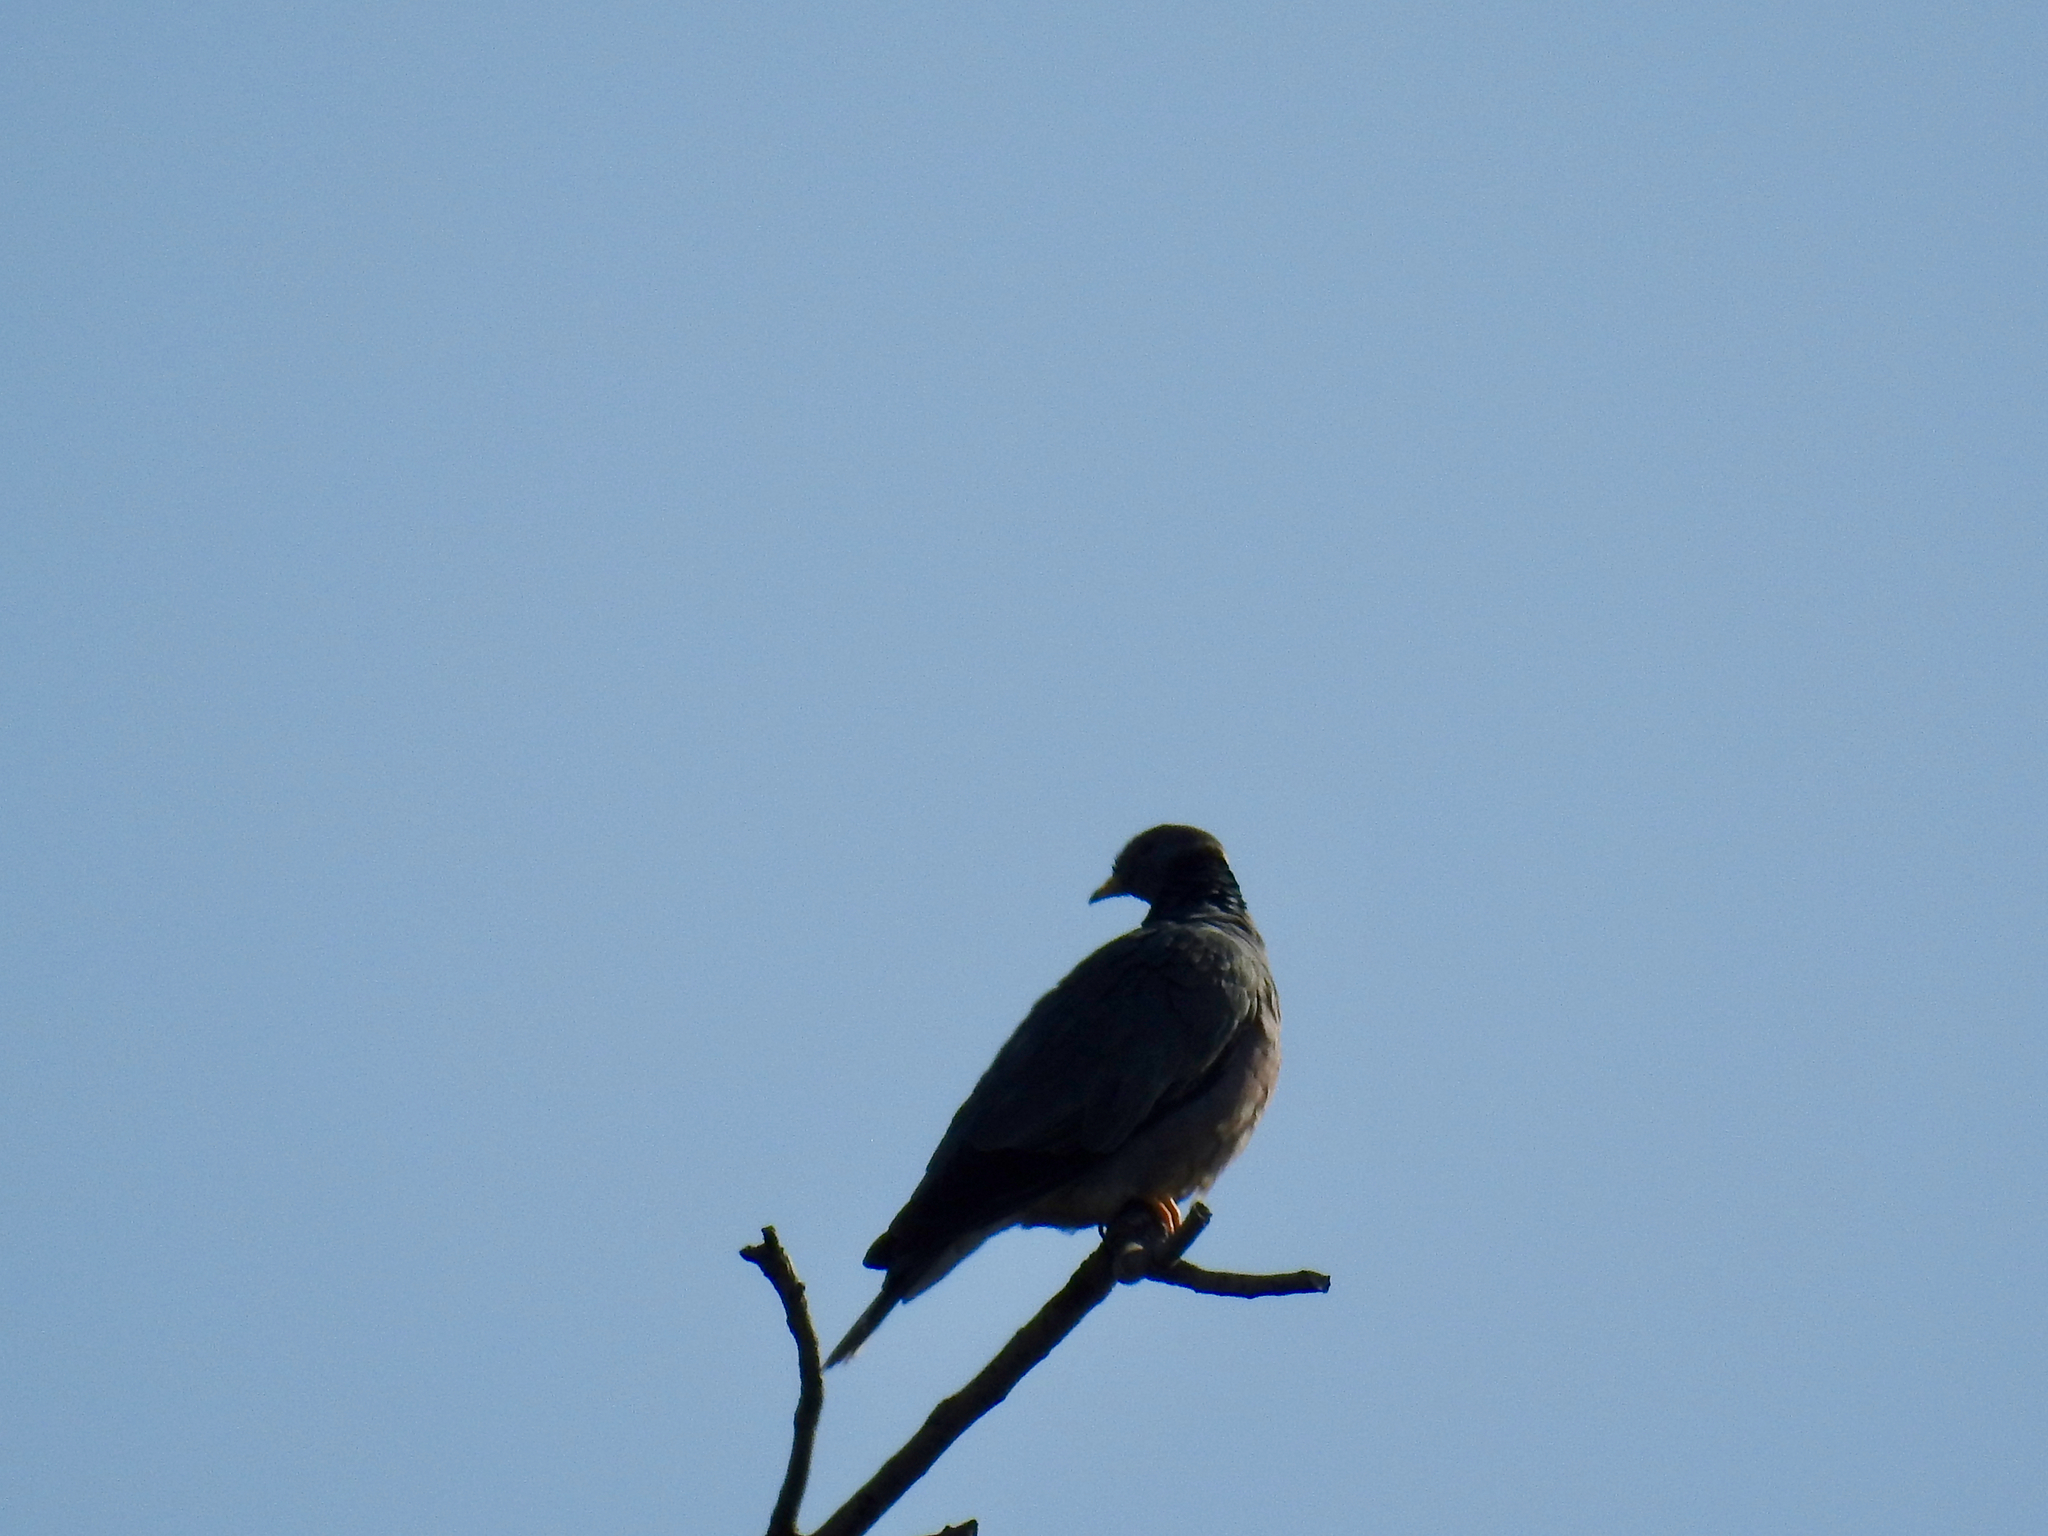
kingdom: Animalia
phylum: Chordata
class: Aves
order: Columbiformes
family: Columbidae
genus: Patagioenas
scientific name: Patagioenas fasciata
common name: Band-tailed pigeon
